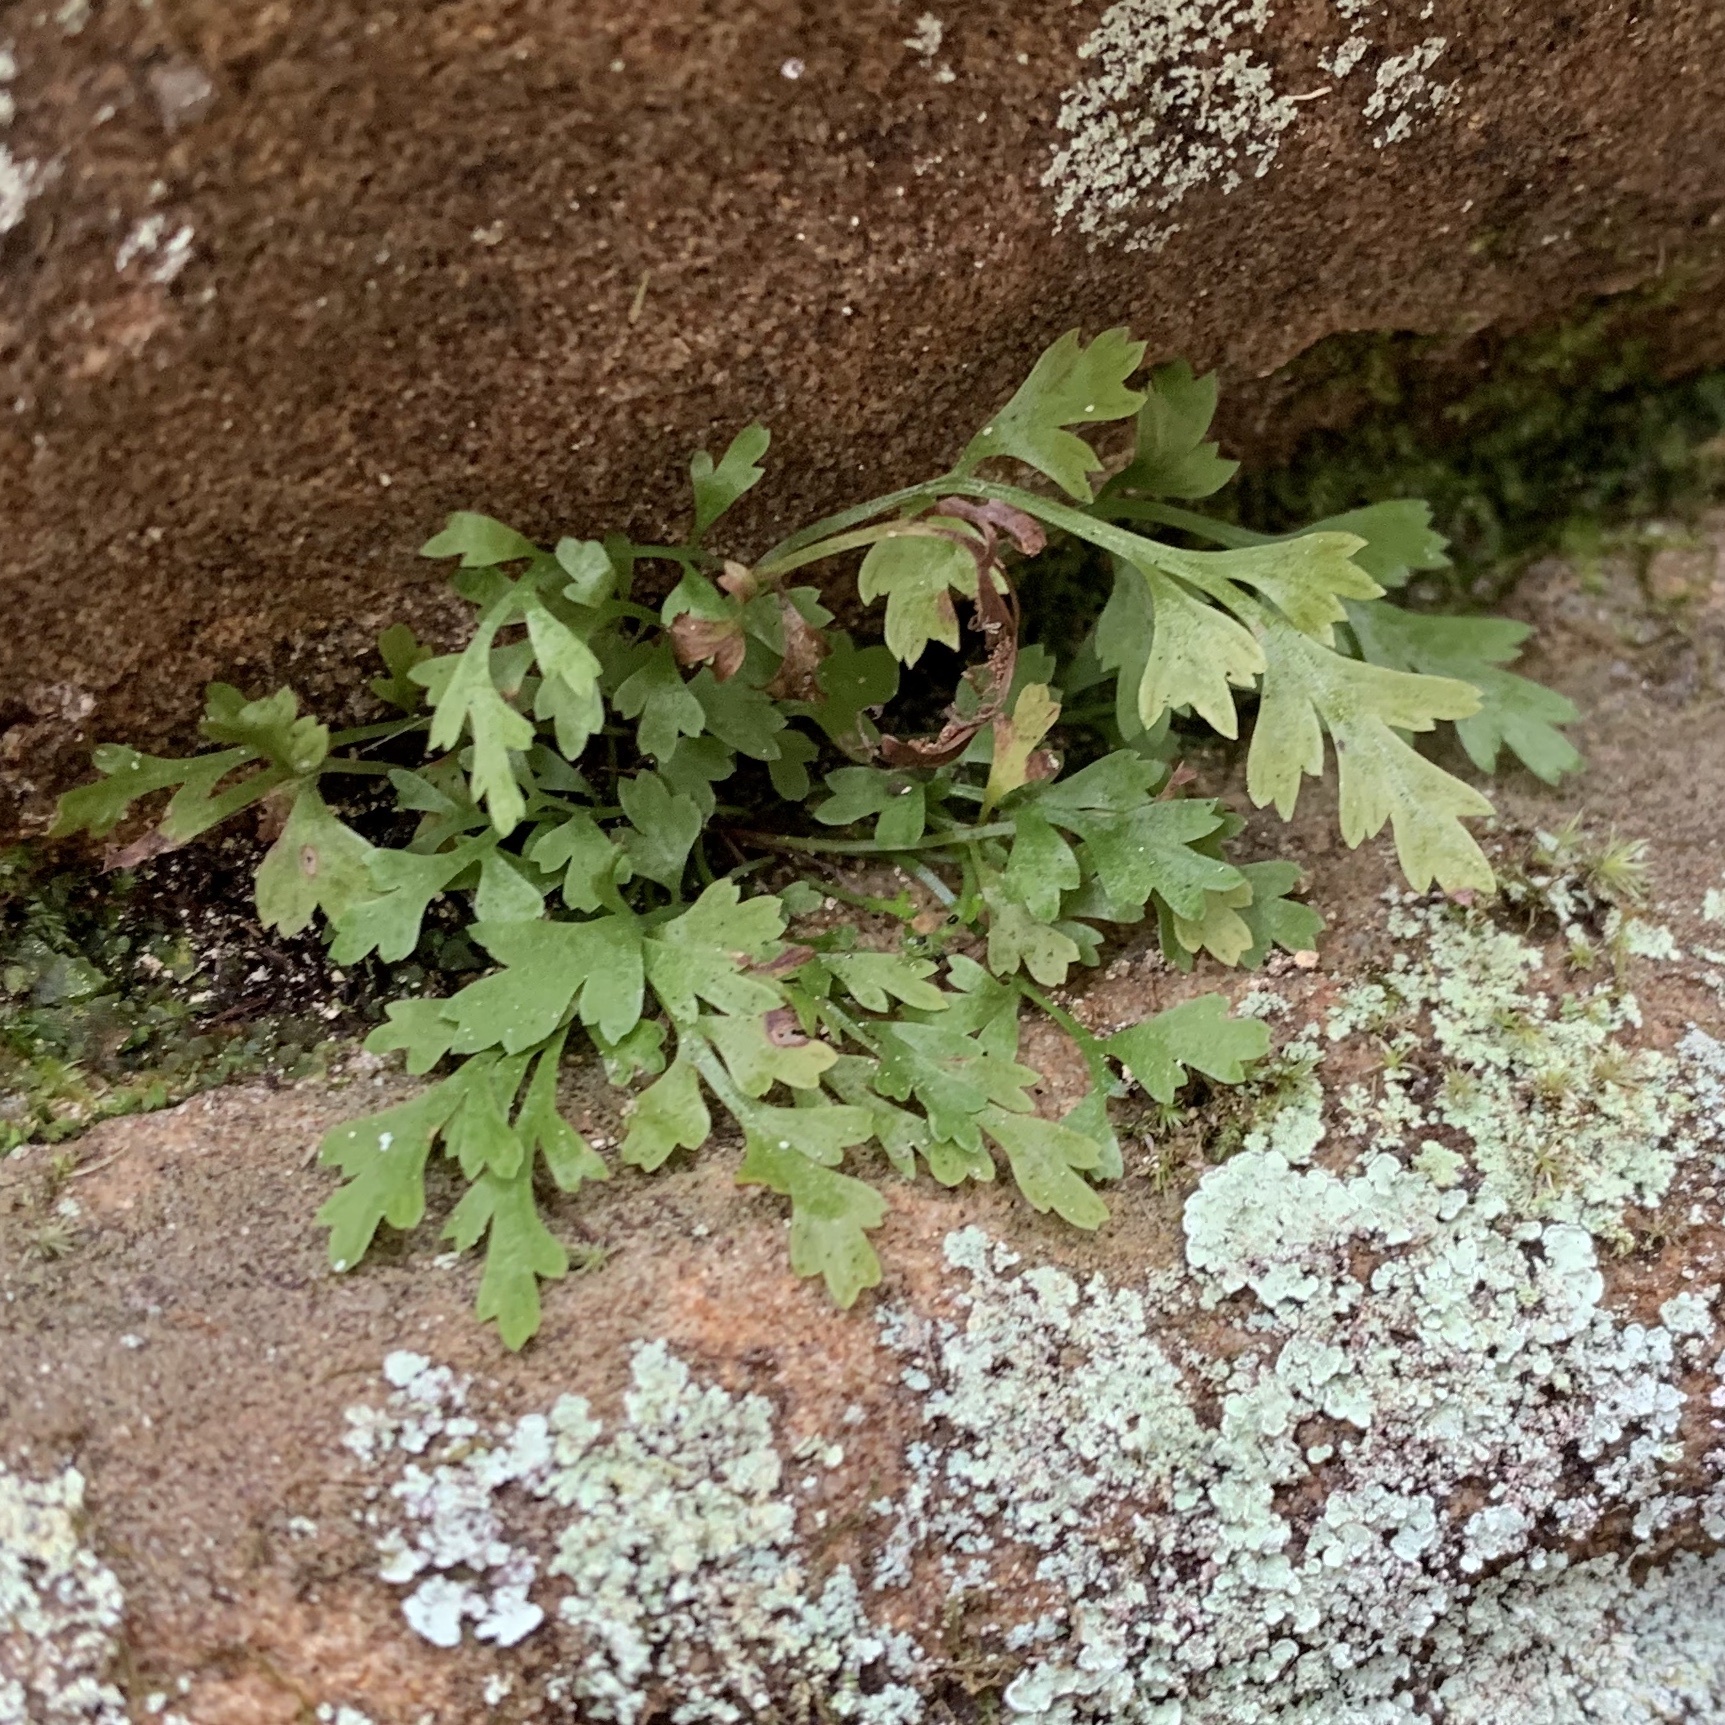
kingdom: Plantae
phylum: Tracheophyta
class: Polypodiopsida
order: Polypodiales
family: Aspleniaceae
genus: Asplenium
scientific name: Asplenium montanum
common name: Mountain spleenwort
